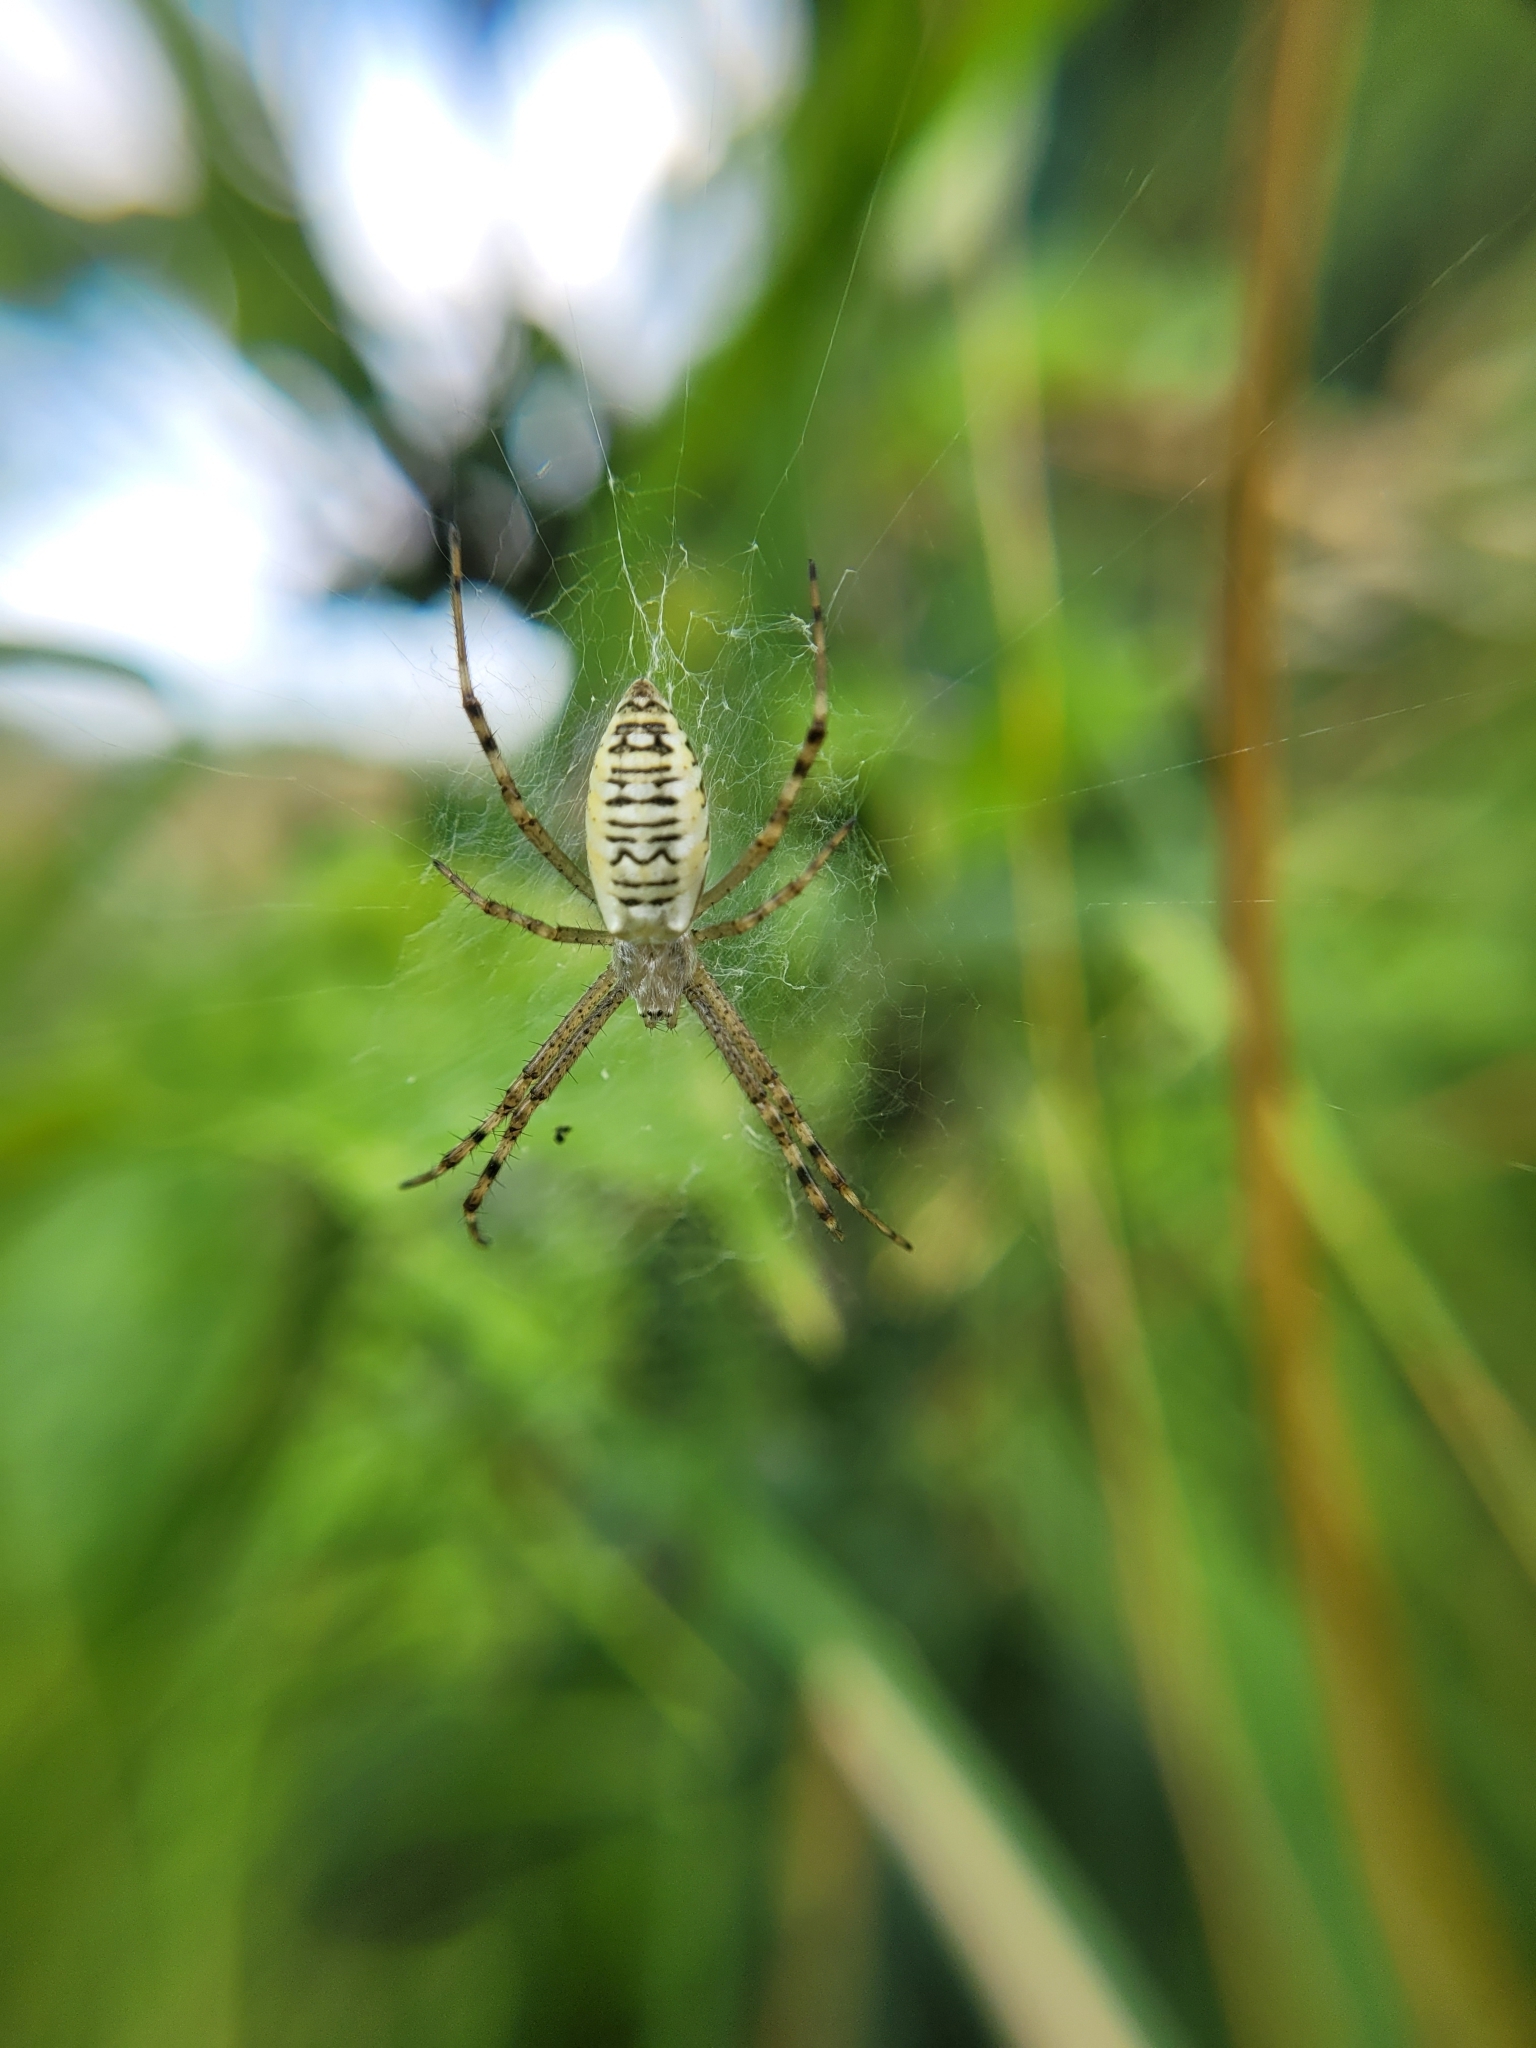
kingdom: Animalia
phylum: Arthropoda
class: Arachnida
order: Araneae
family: Araneidae
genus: Argiope
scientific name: Argiope bruennichi
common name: Wasp spider
